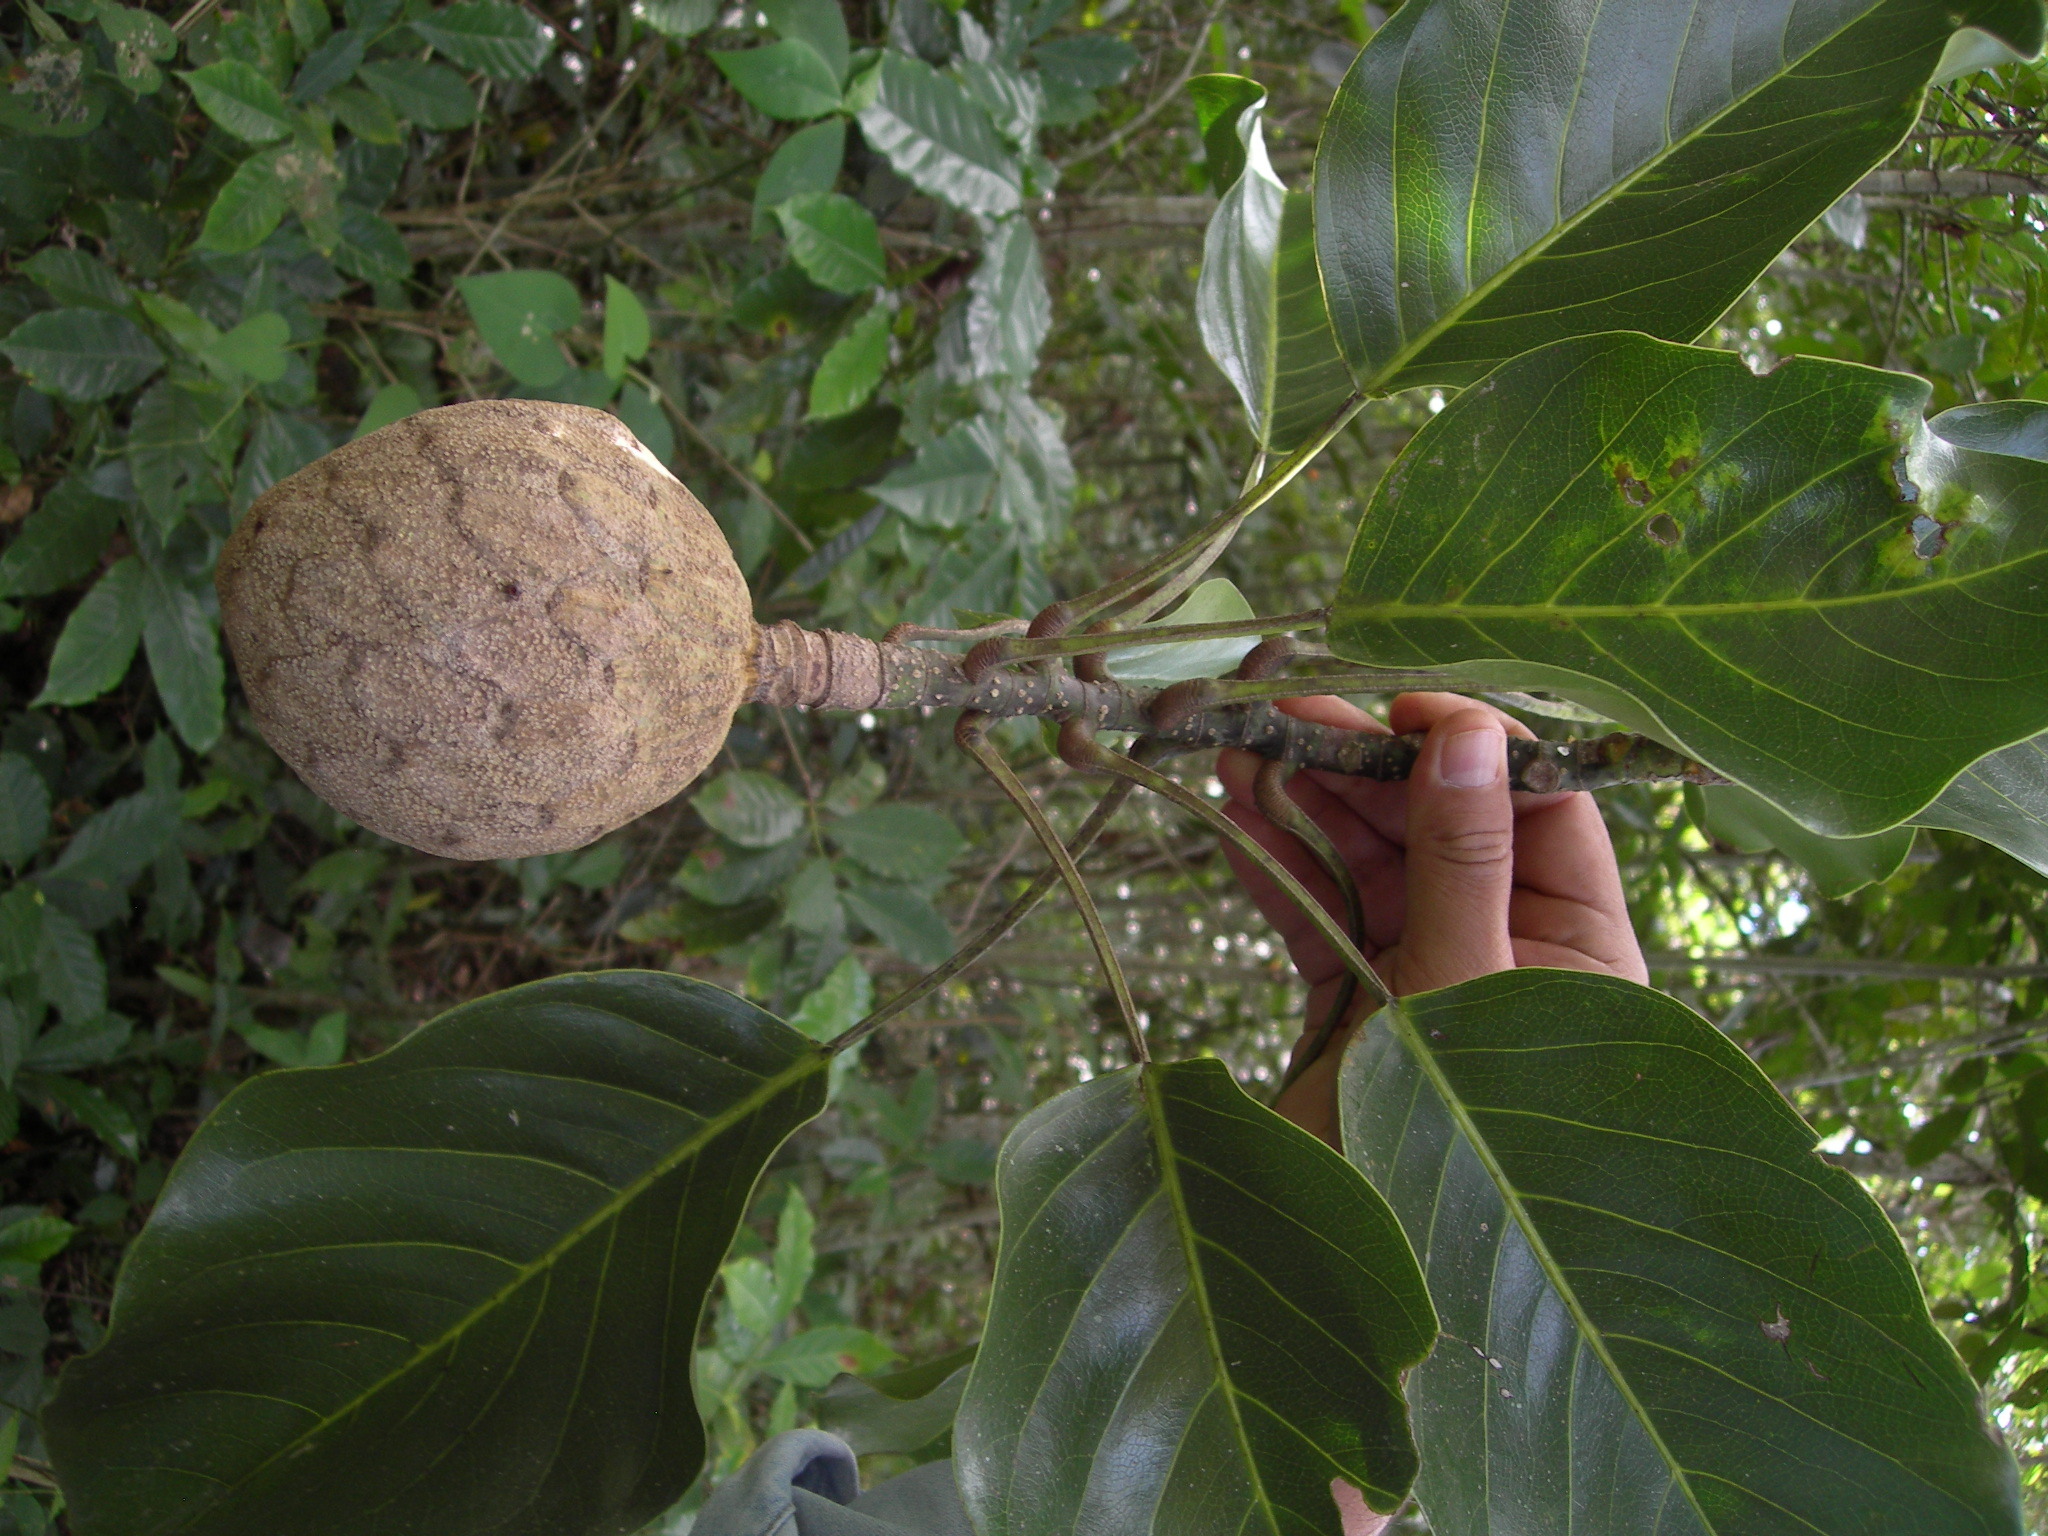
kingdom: Plantae
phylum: Tracheophyta
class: Magnoliopsida
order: Magnoliales
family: Magnoliaceae
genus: Magnolia
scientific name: Magnolia perezfarrerae
